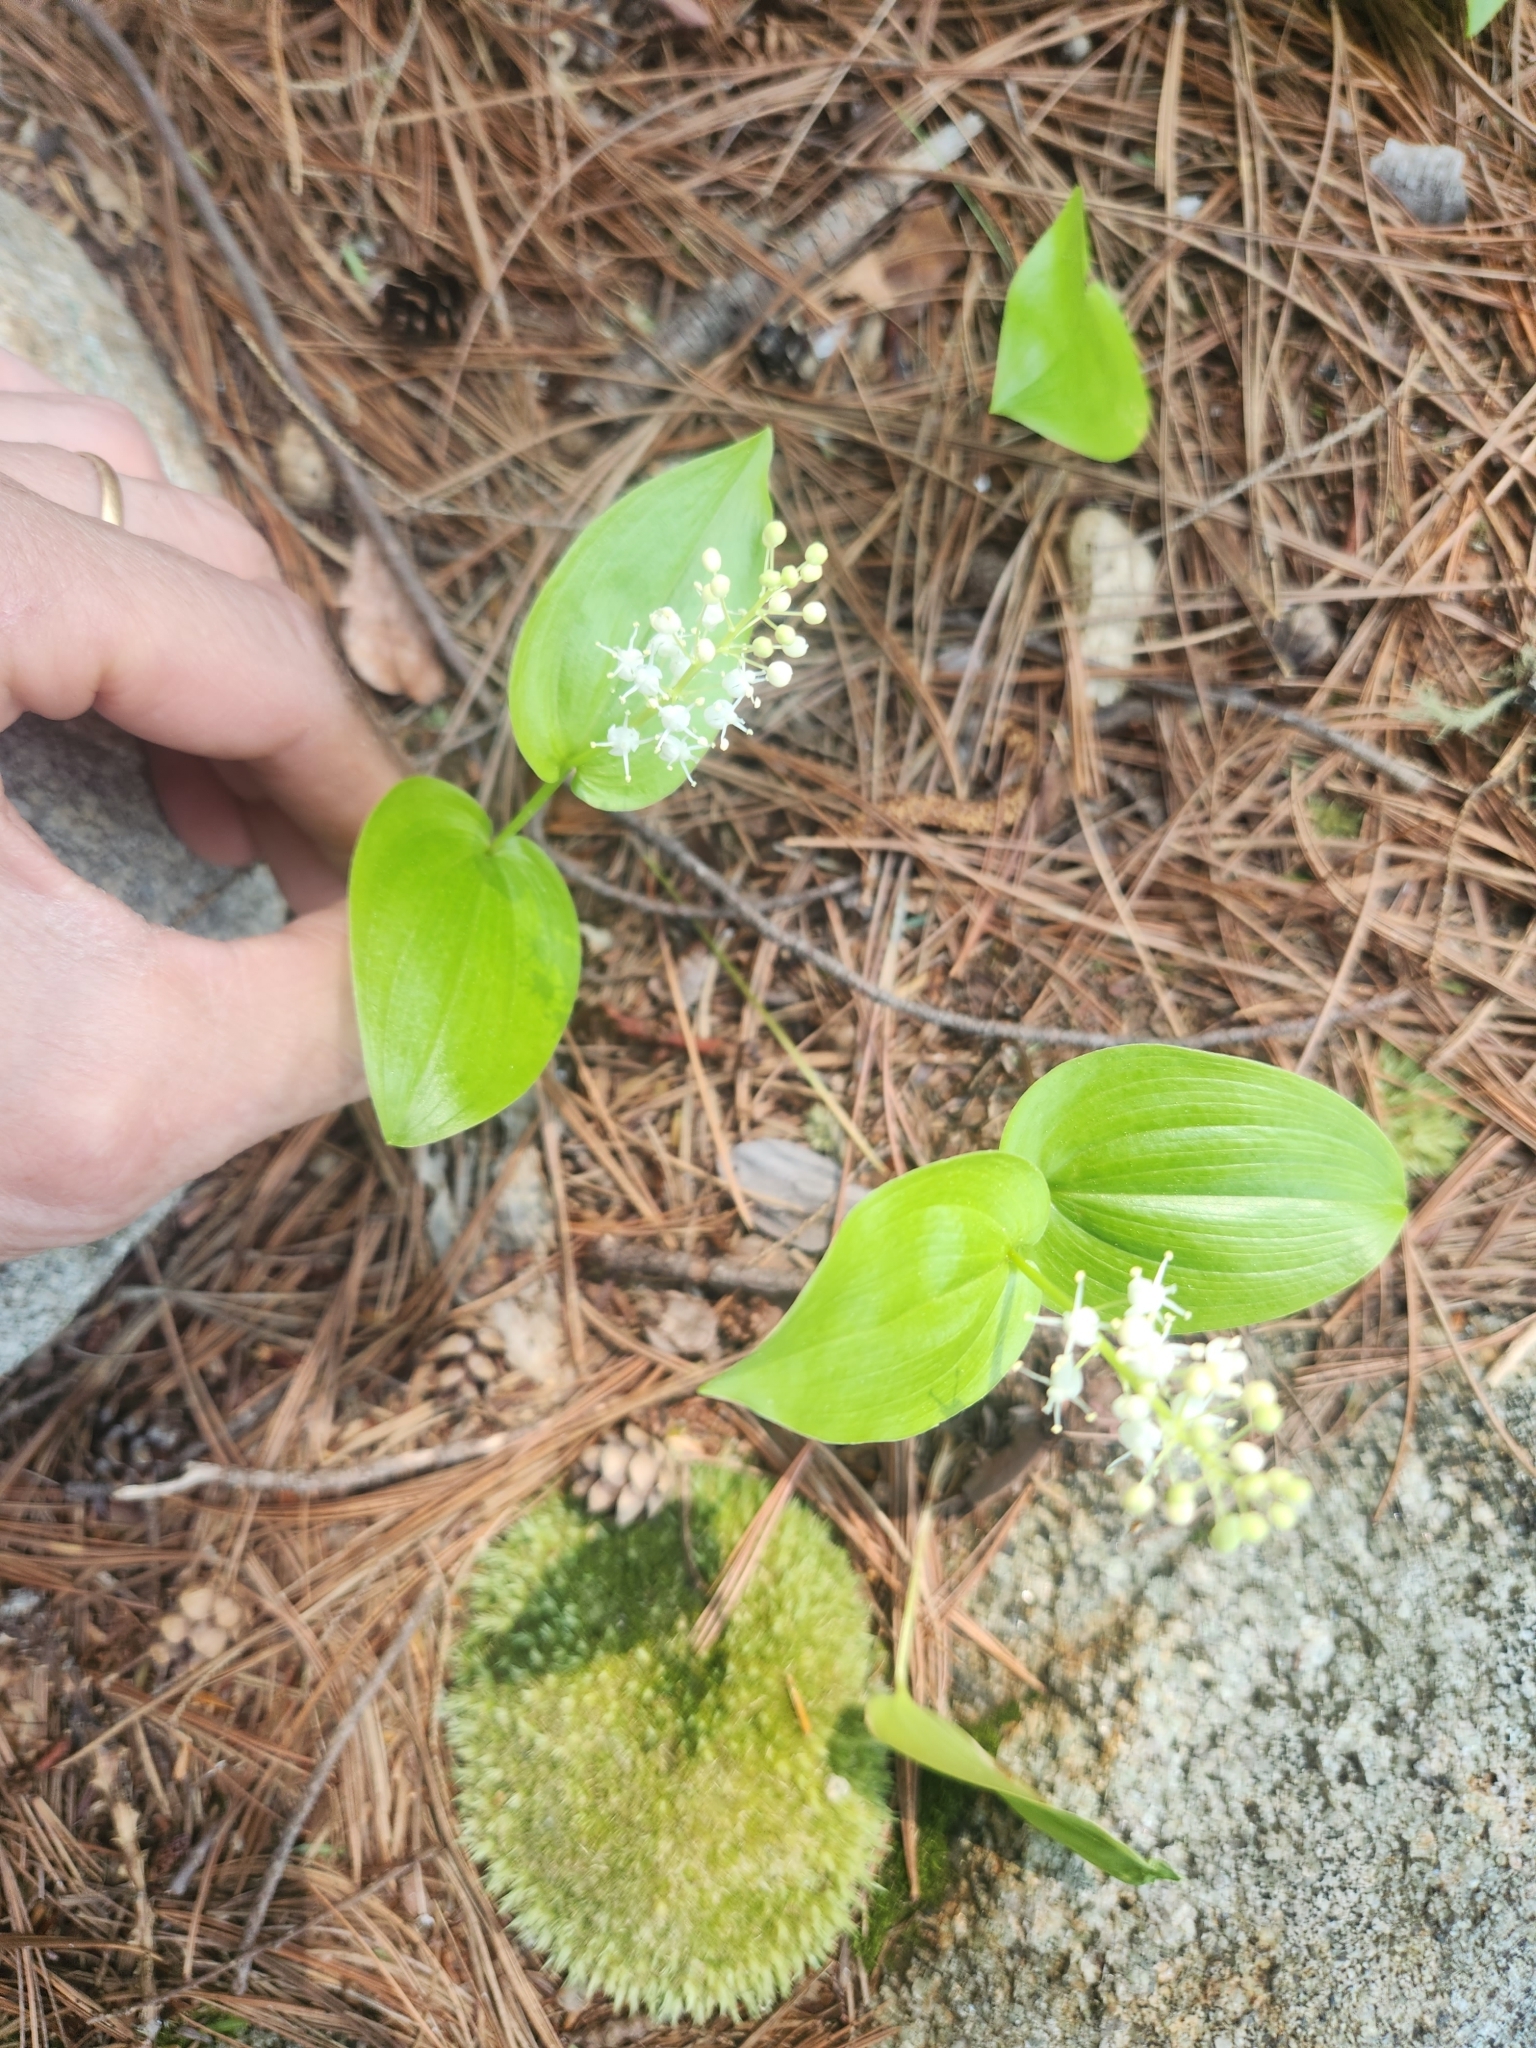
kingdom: Plantae
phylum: Tracheophyta
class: Liliopsida
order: Asparagales
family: Asparagaceae
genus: Maianthemum
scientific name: Maianthemum canadense
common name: False lily-of-the-valley
